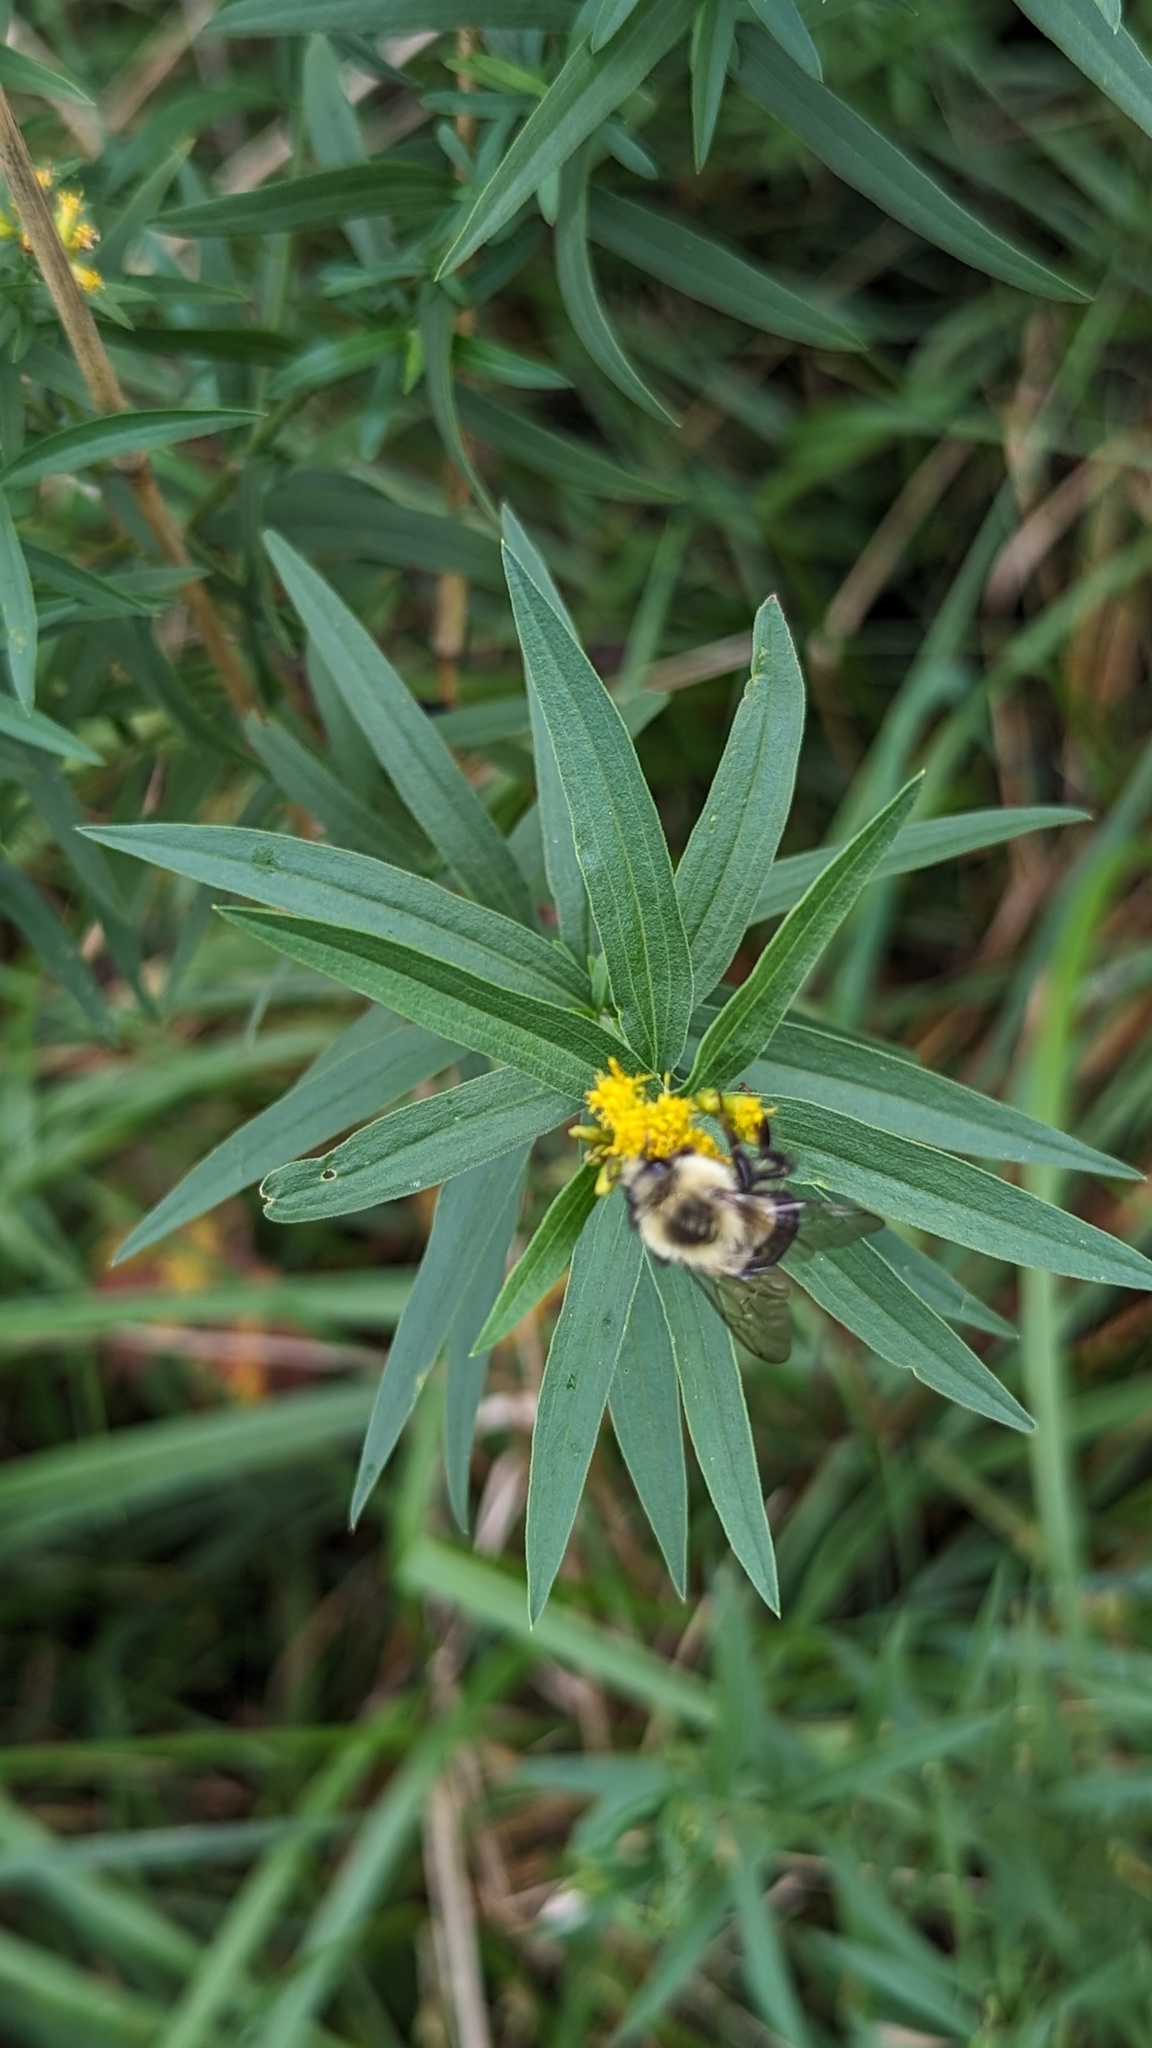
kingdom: Animalia
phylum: Arthropoda
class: Insecta
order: Hymenoptera
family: Apidae
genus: Bombus
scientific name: Bombus impatiens
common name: Common eastern bumble bee
